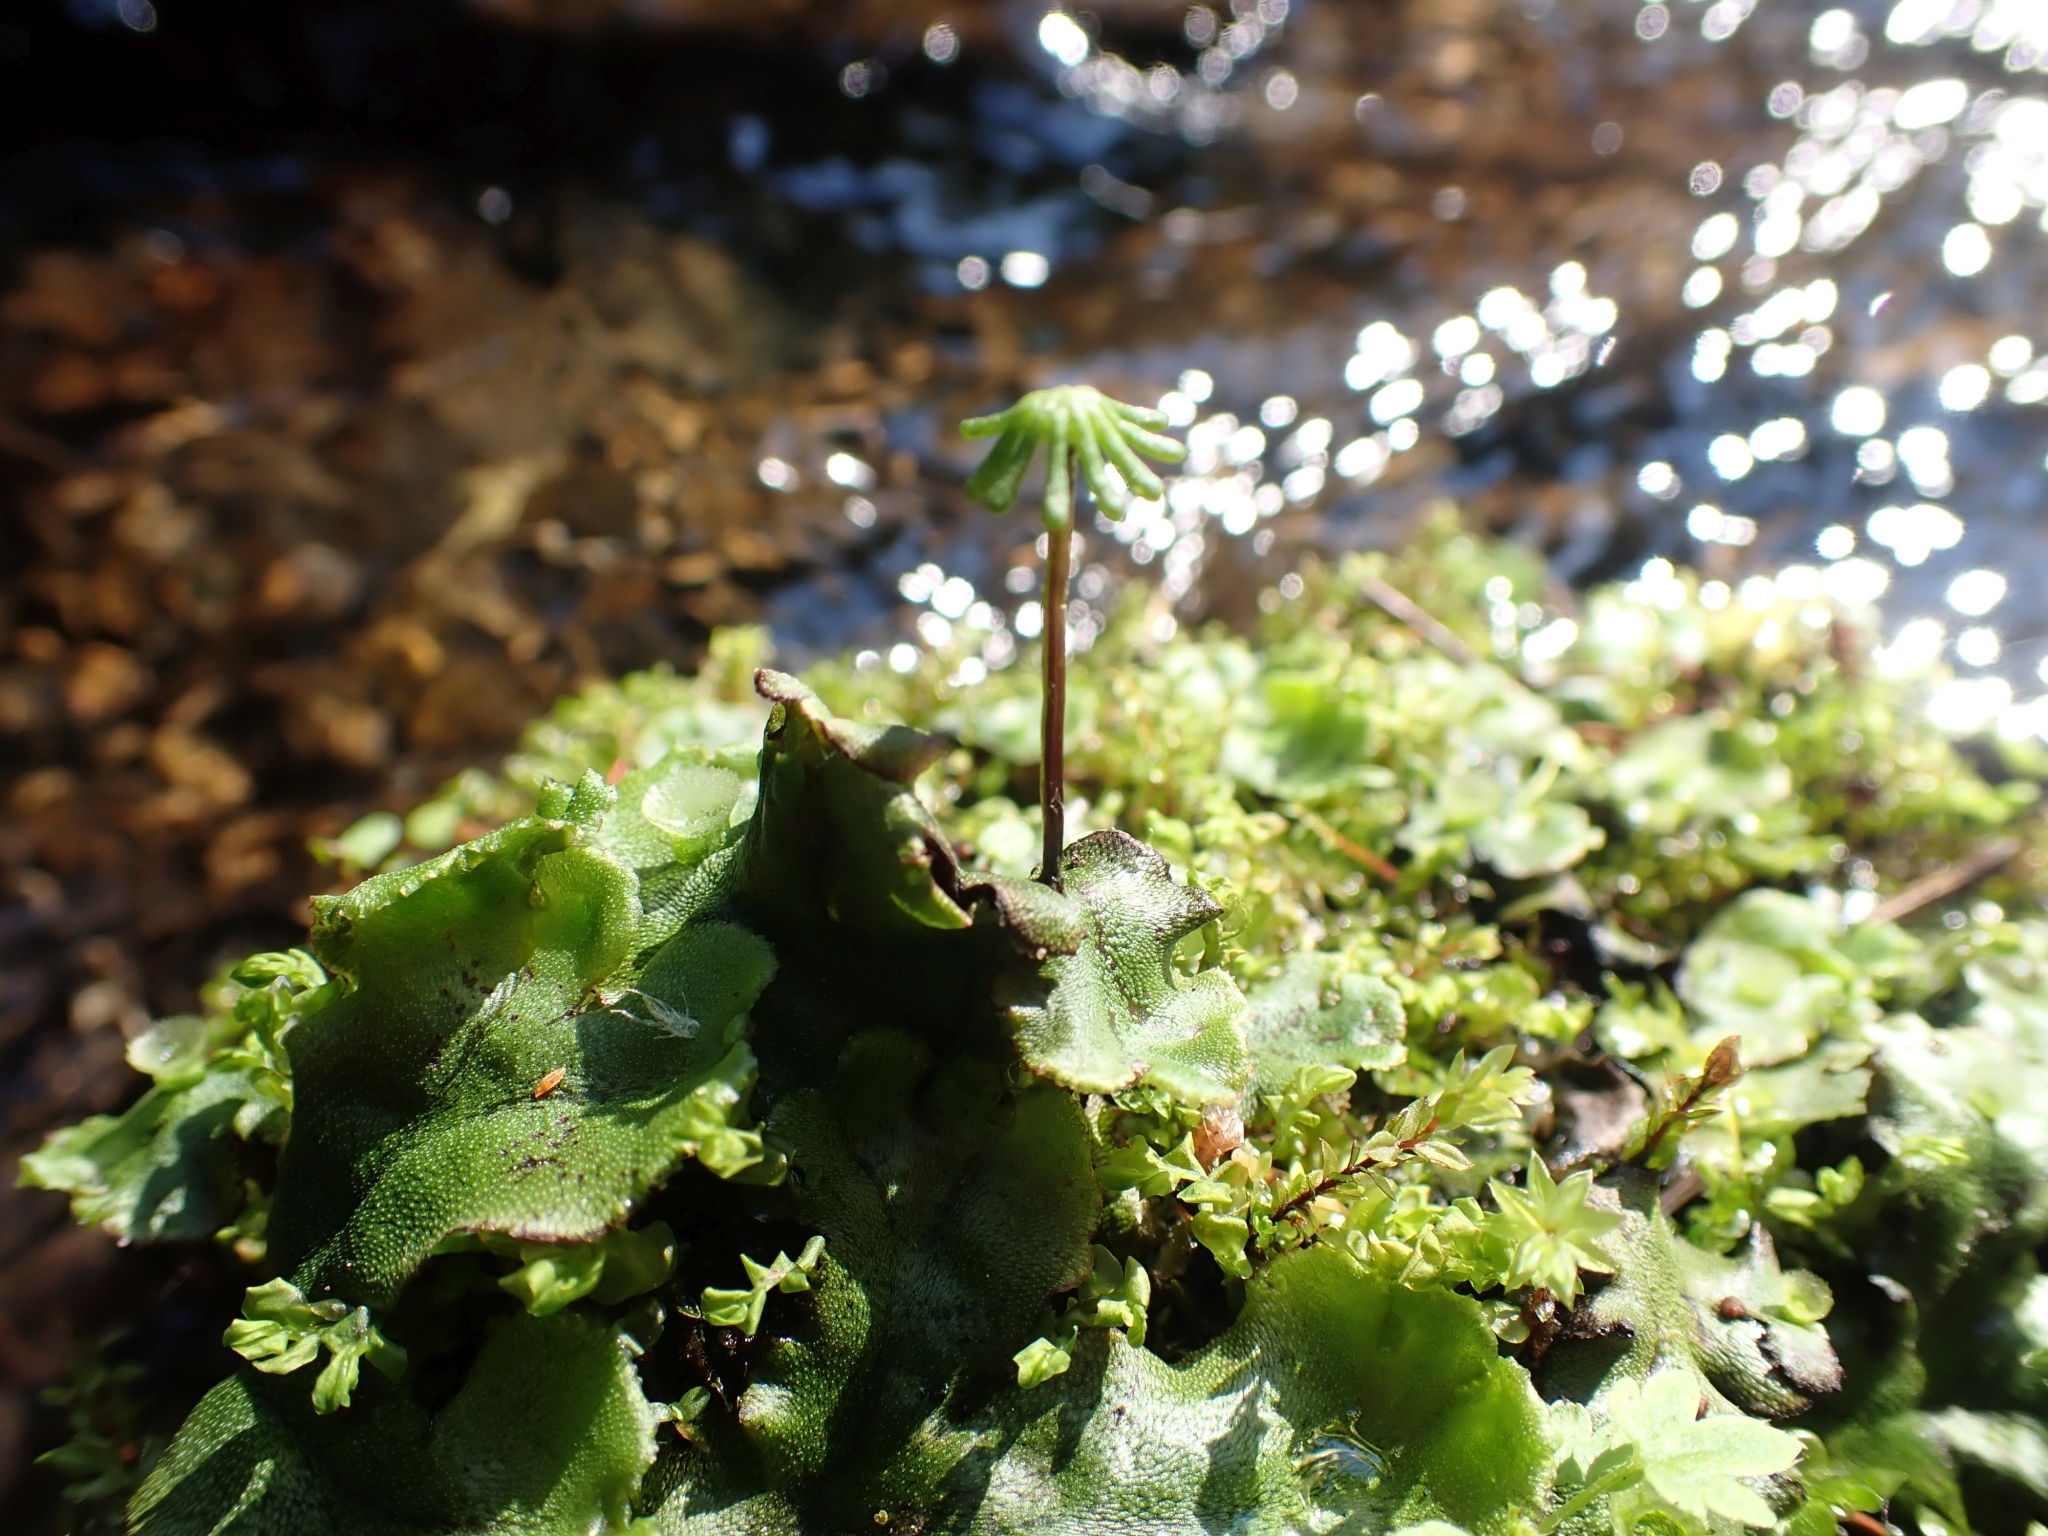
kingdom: Plantae
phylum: Marchantiophyta
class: Marchantiopsida
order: Marchantiales
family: Marchantiaceae
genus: Marchantia
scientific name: Marchantia polymorpha
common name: Common liverwort
